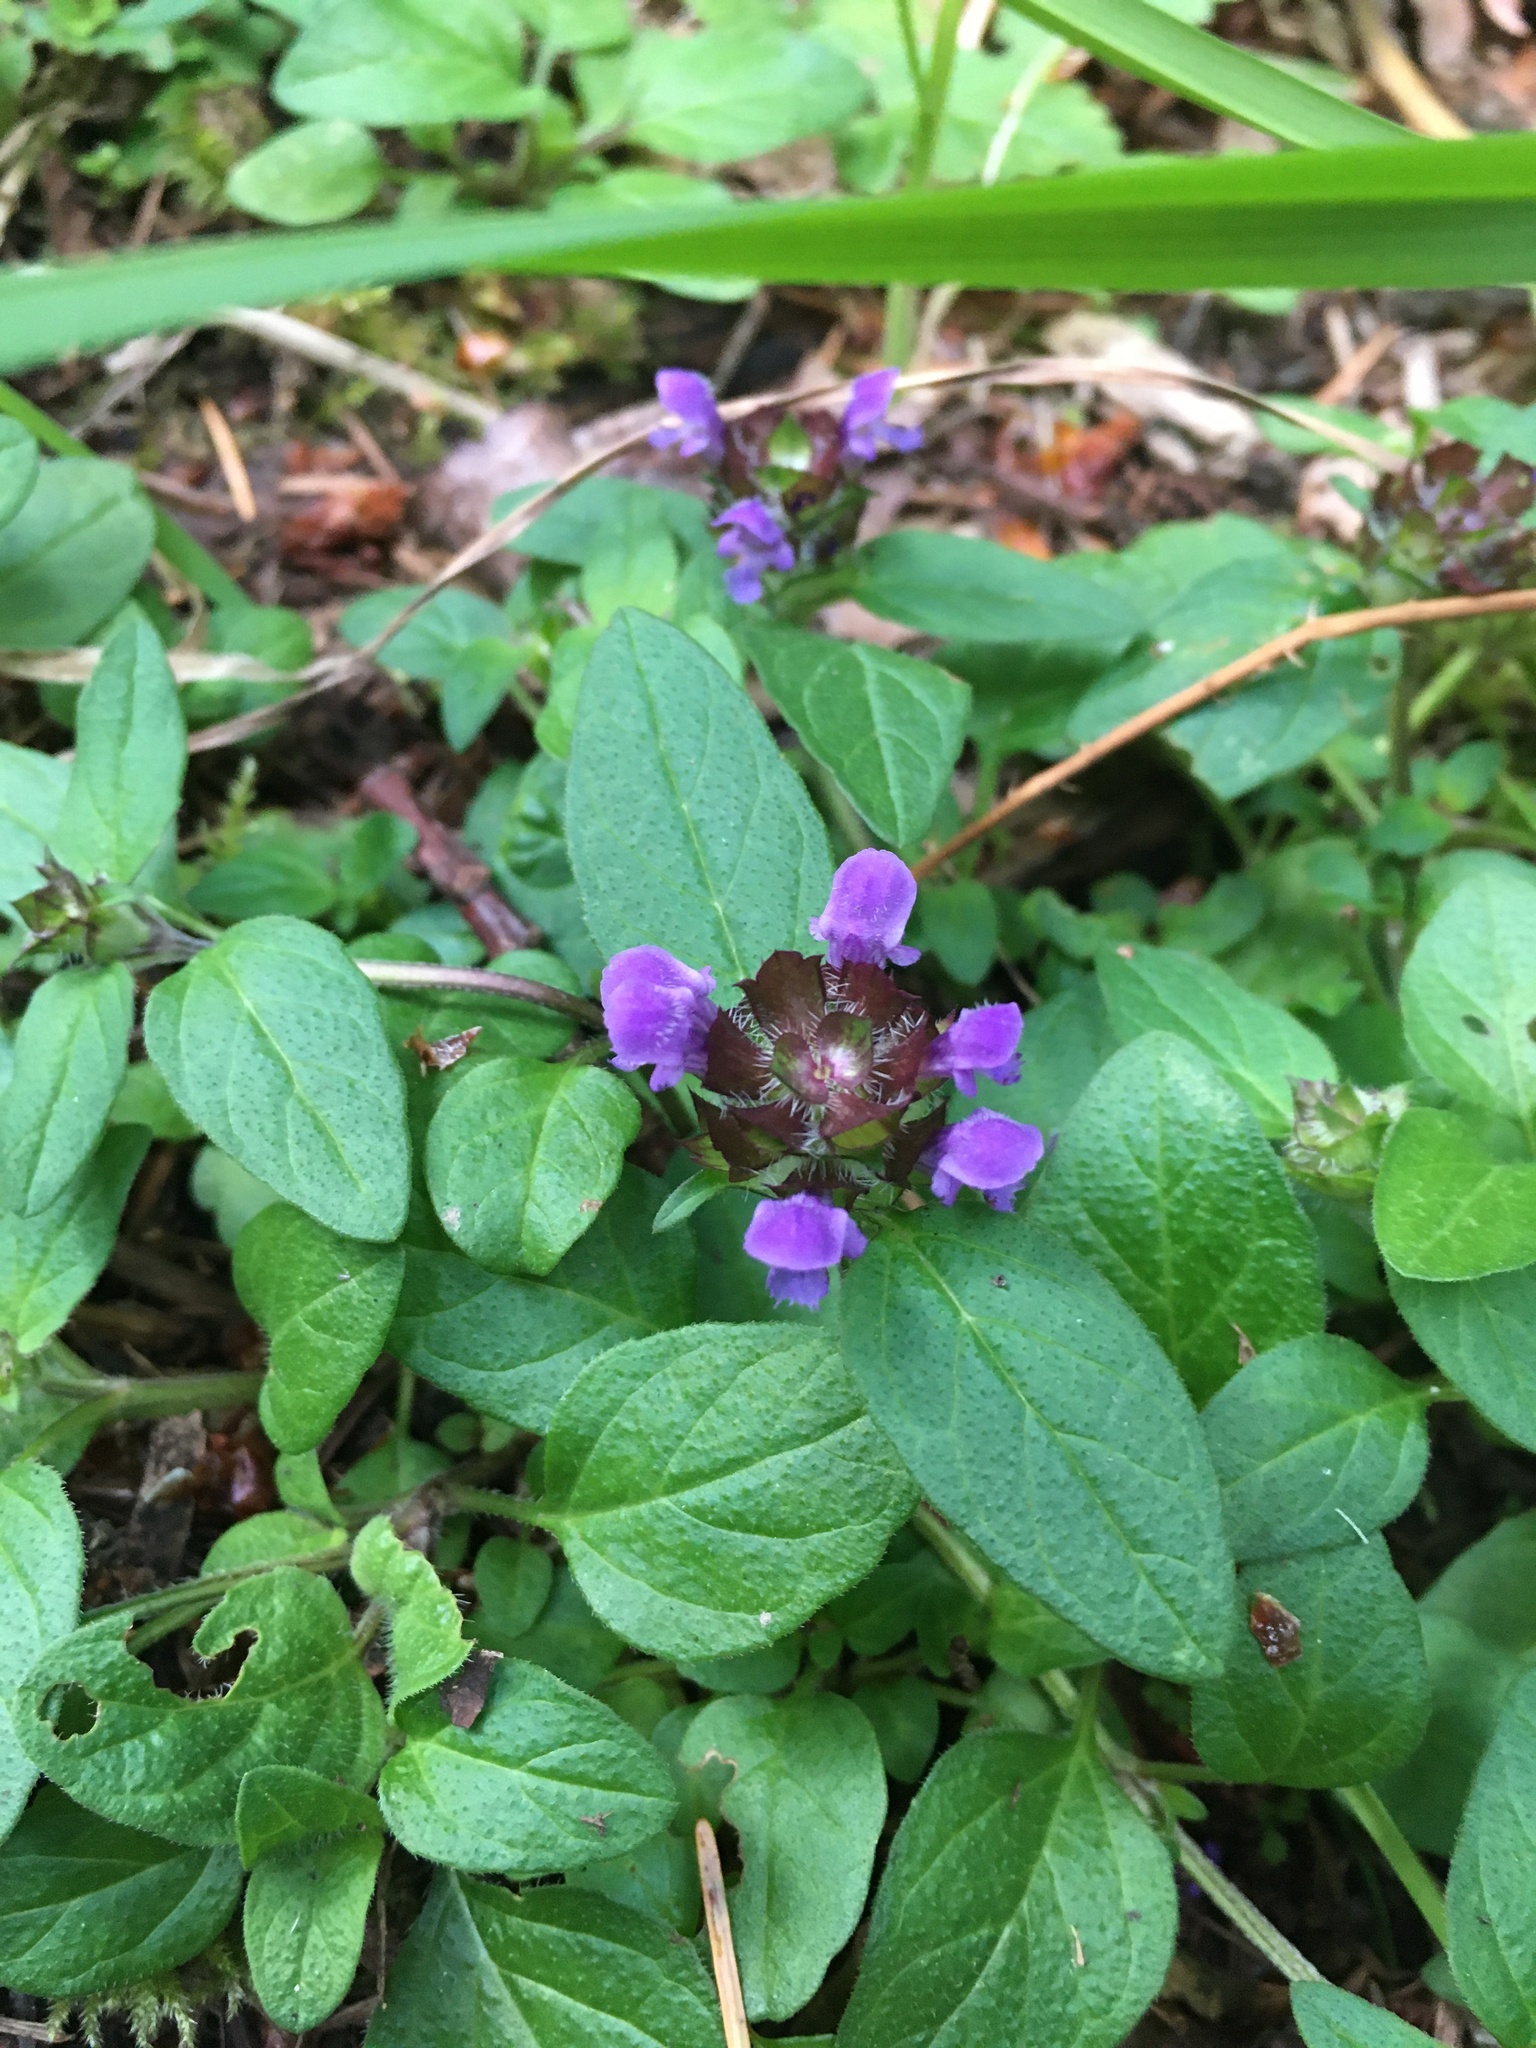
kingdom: Plantae
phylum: Tracheophyta
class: Magnoliopsida
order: Lamiales
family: Lamiaceae
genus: Prunella
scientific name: Prunella vulgaris
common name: Heal-all
